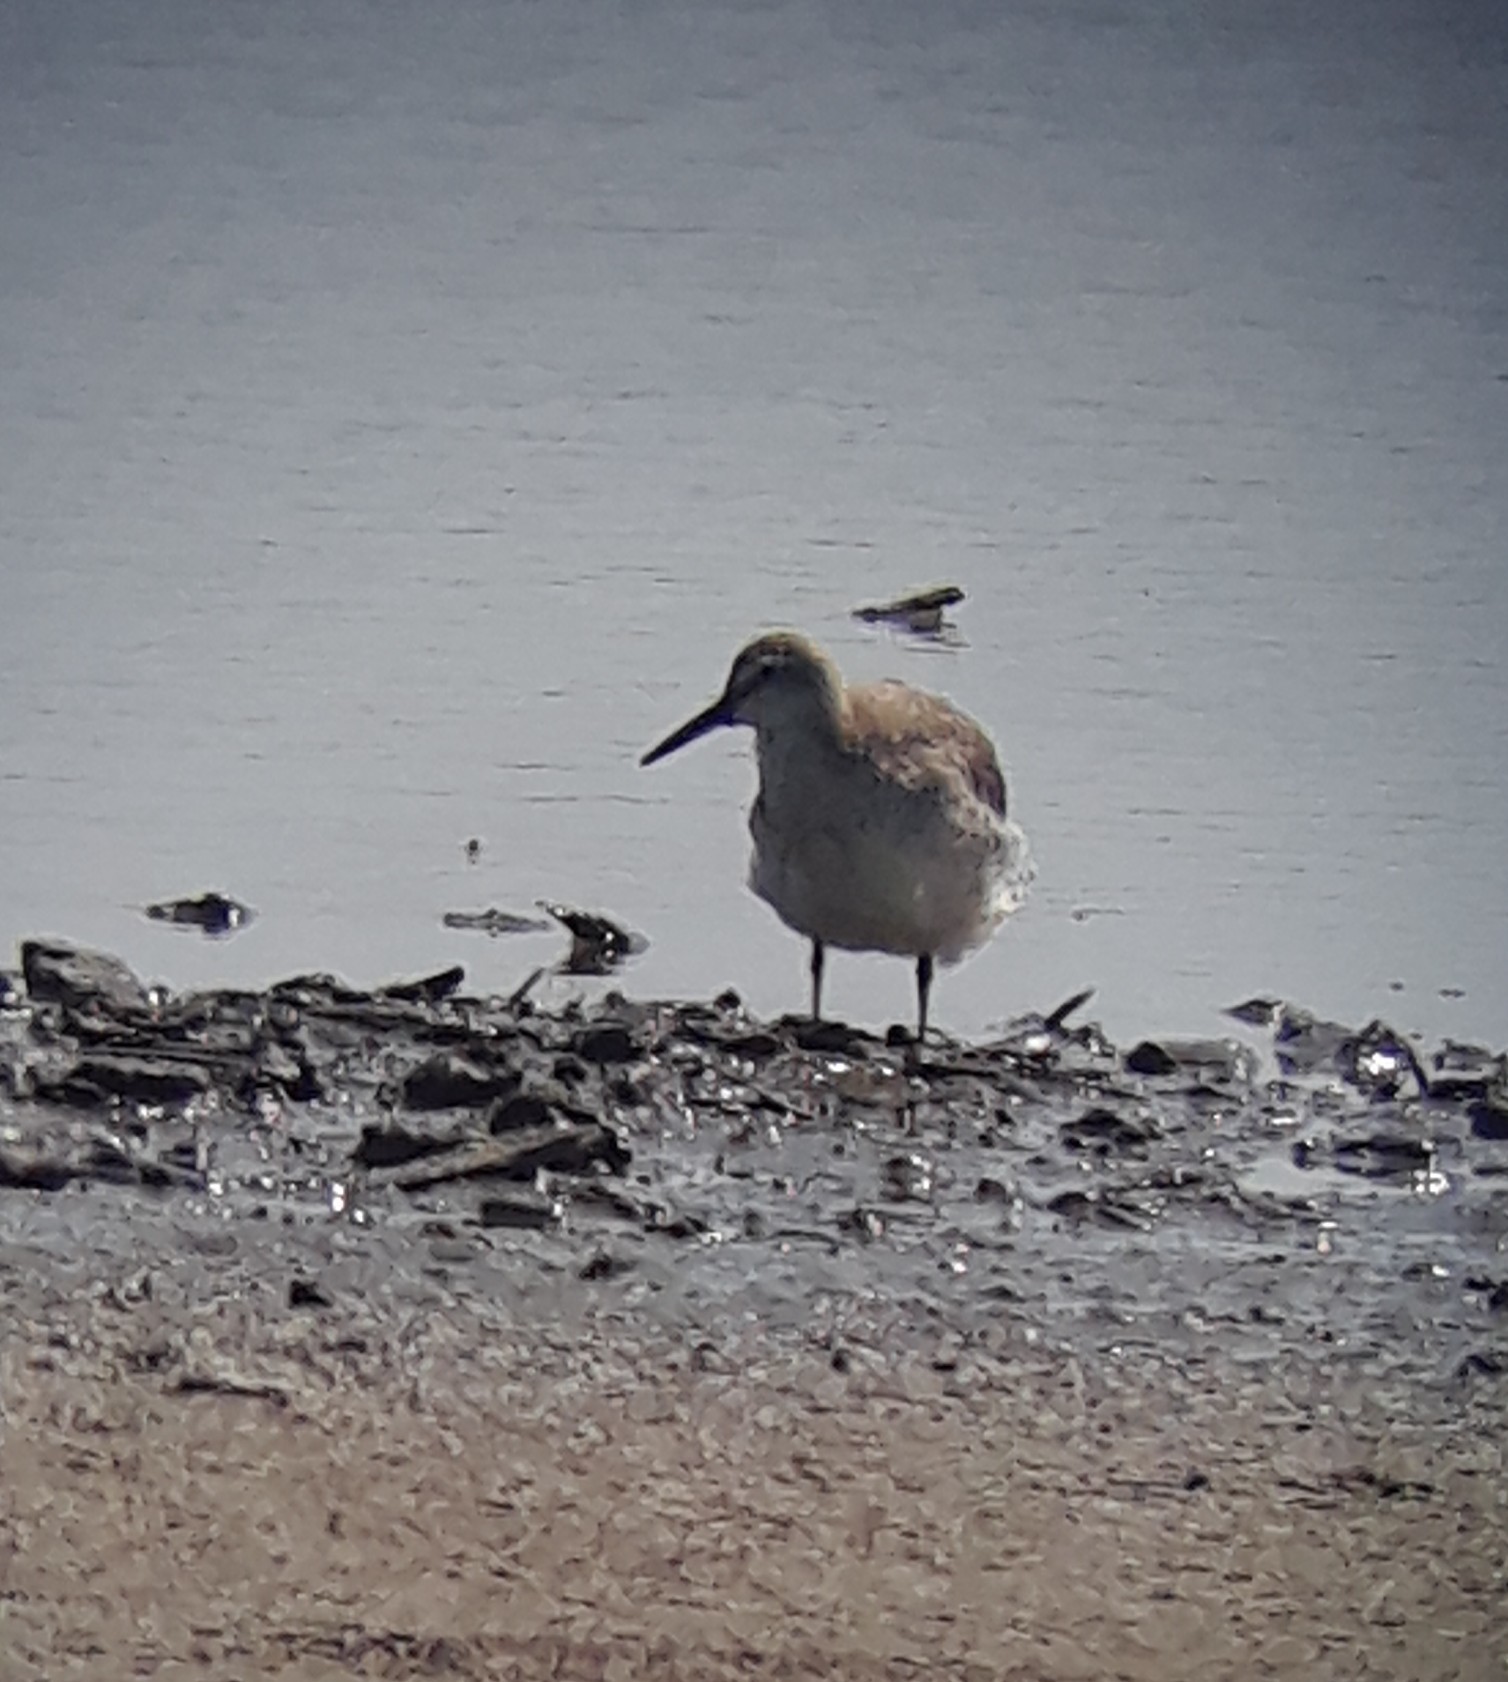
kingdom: Animalia
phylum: Chordata
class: Aves
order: Charadriiformes
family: Scolopacidae
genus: Calidris
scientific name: Calidris canutus
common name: Red knot
